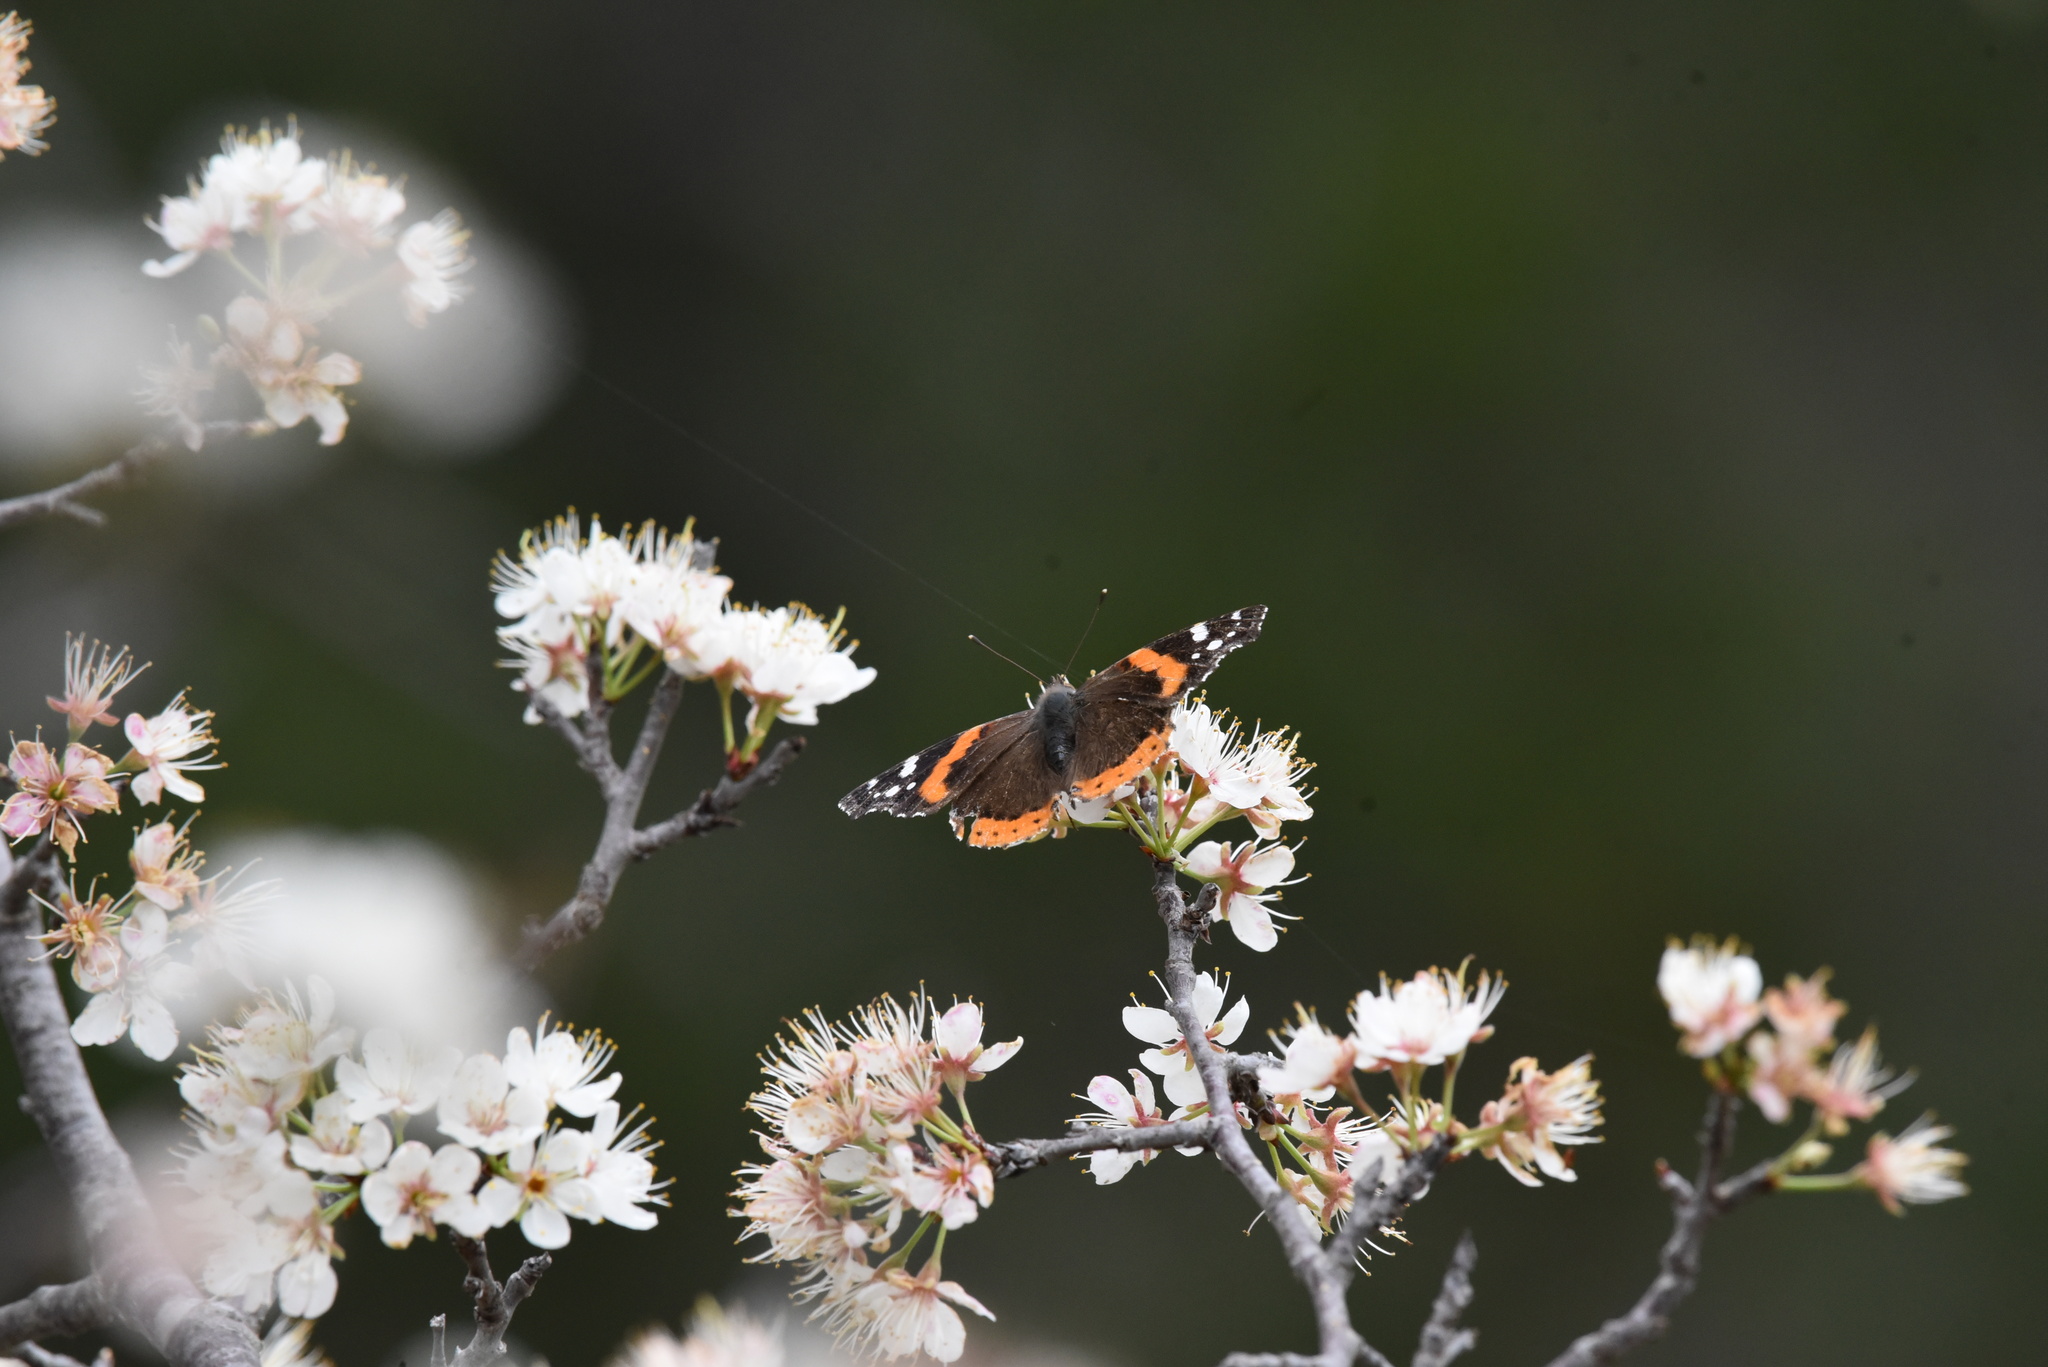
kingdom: Animalia
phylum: Arthropoda
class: Insecta
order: Lepidoptera
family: Nymphalidae
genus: Vanessa
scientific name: Vanessa atalanta
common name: Red admiral
